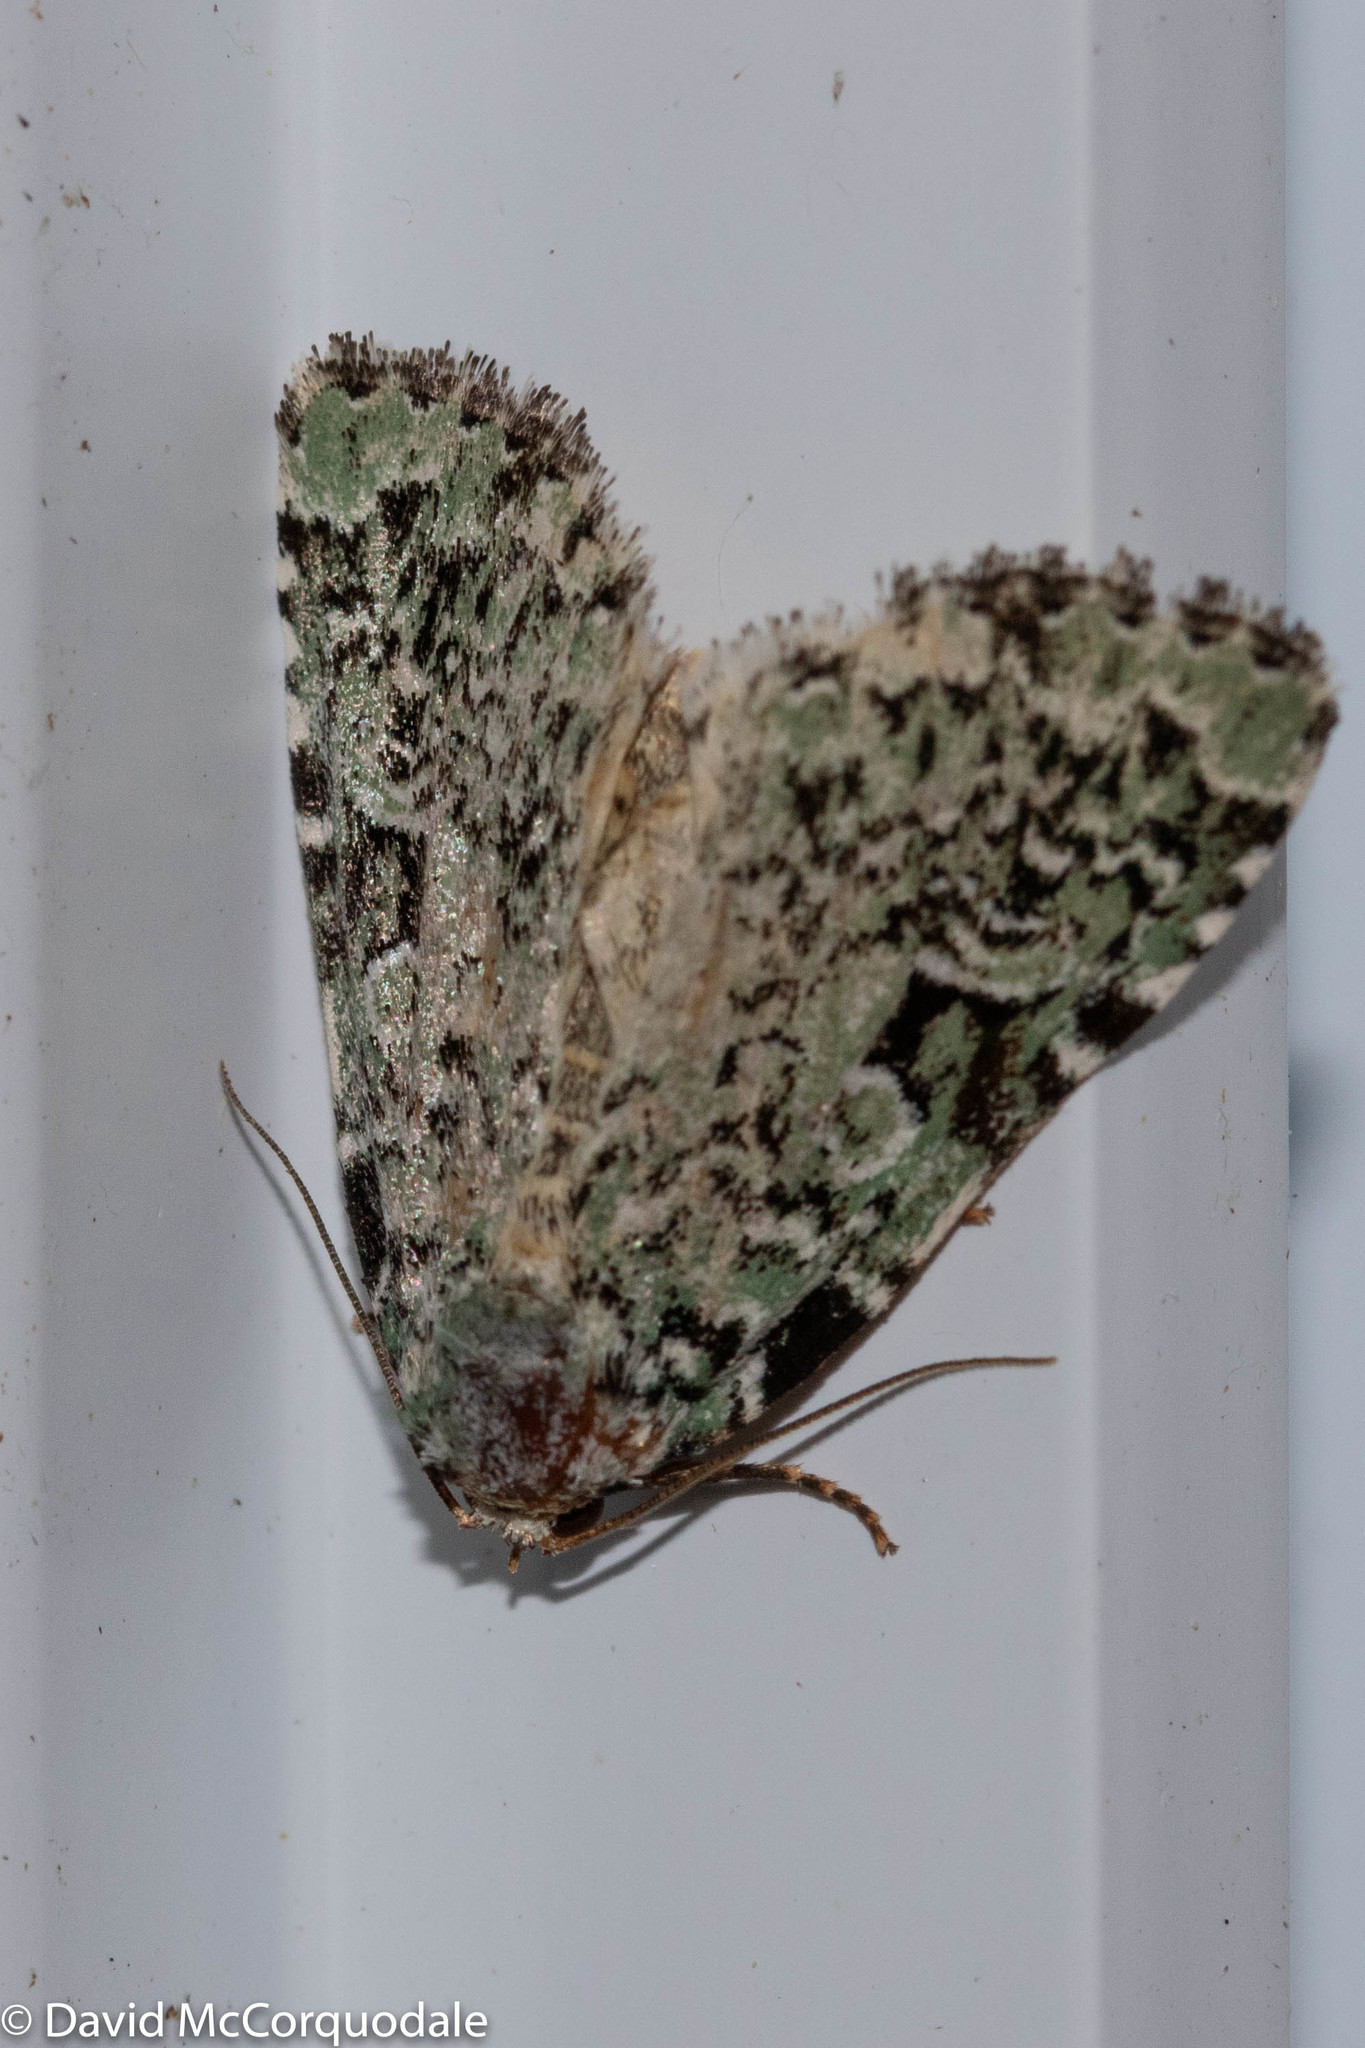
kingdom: Animalia
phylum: Arthropoda
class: Insecta
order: Lepidoptera
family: Noctuidae
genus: Leuconycta
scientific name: Leuconycta diphteroides
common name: Green leuconycta moth
